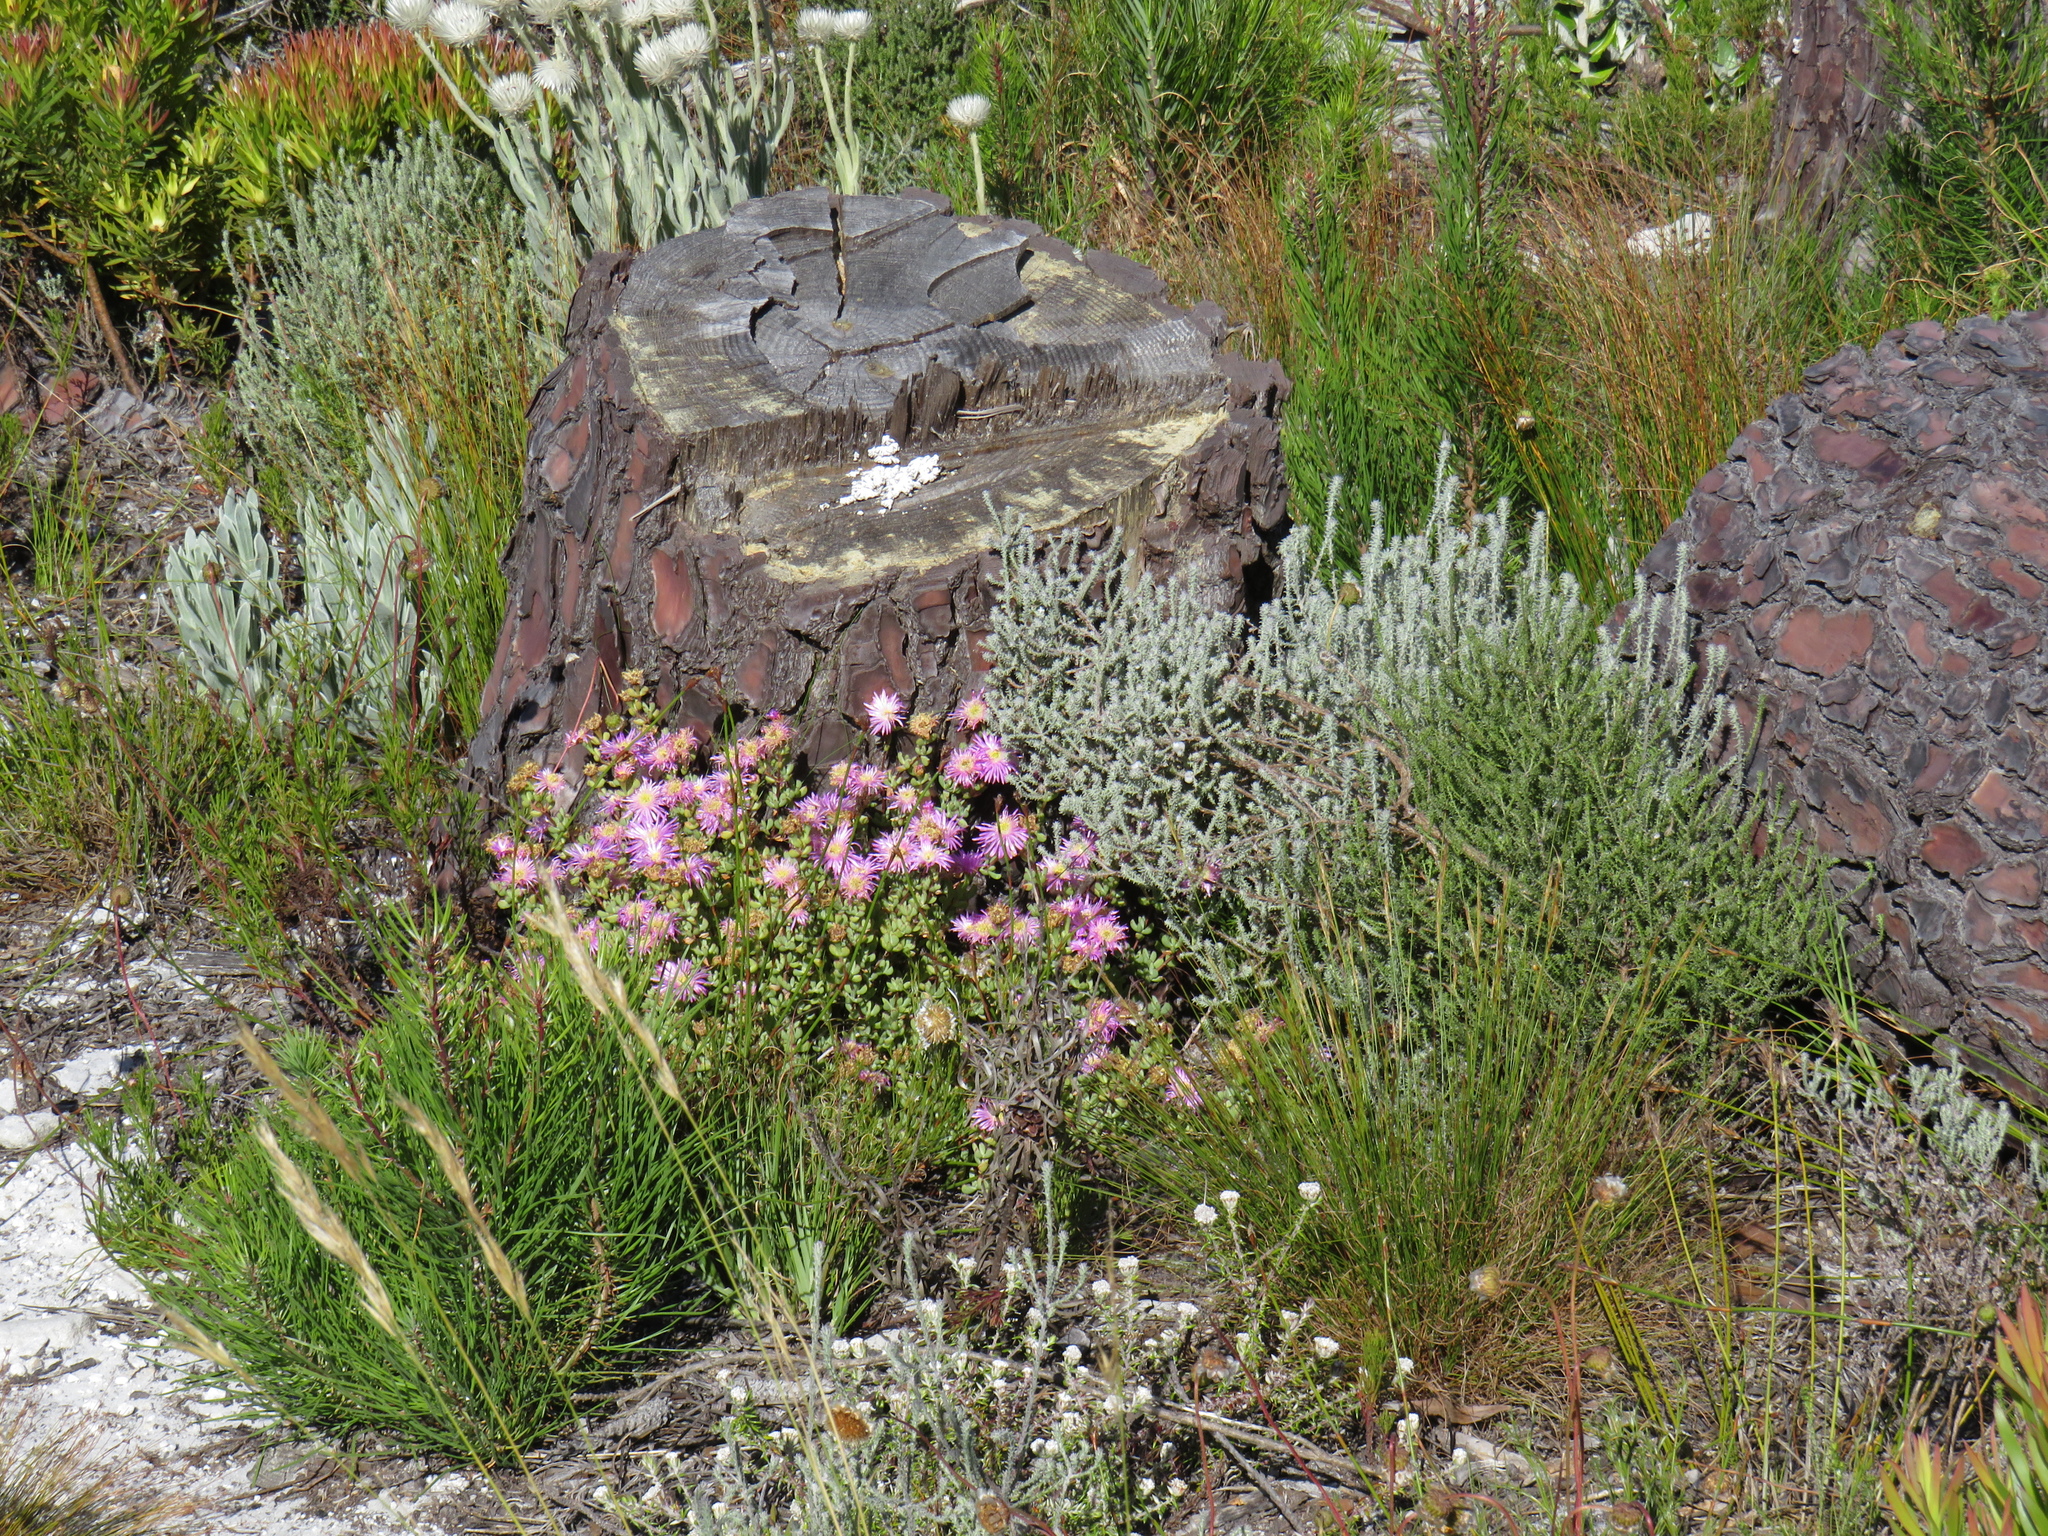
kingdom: Plantae
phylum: Tracheophyta
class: Magnoliopsida
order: Asterales
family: Asteraceae
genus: Seriphium
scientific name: Seriphium spirale
